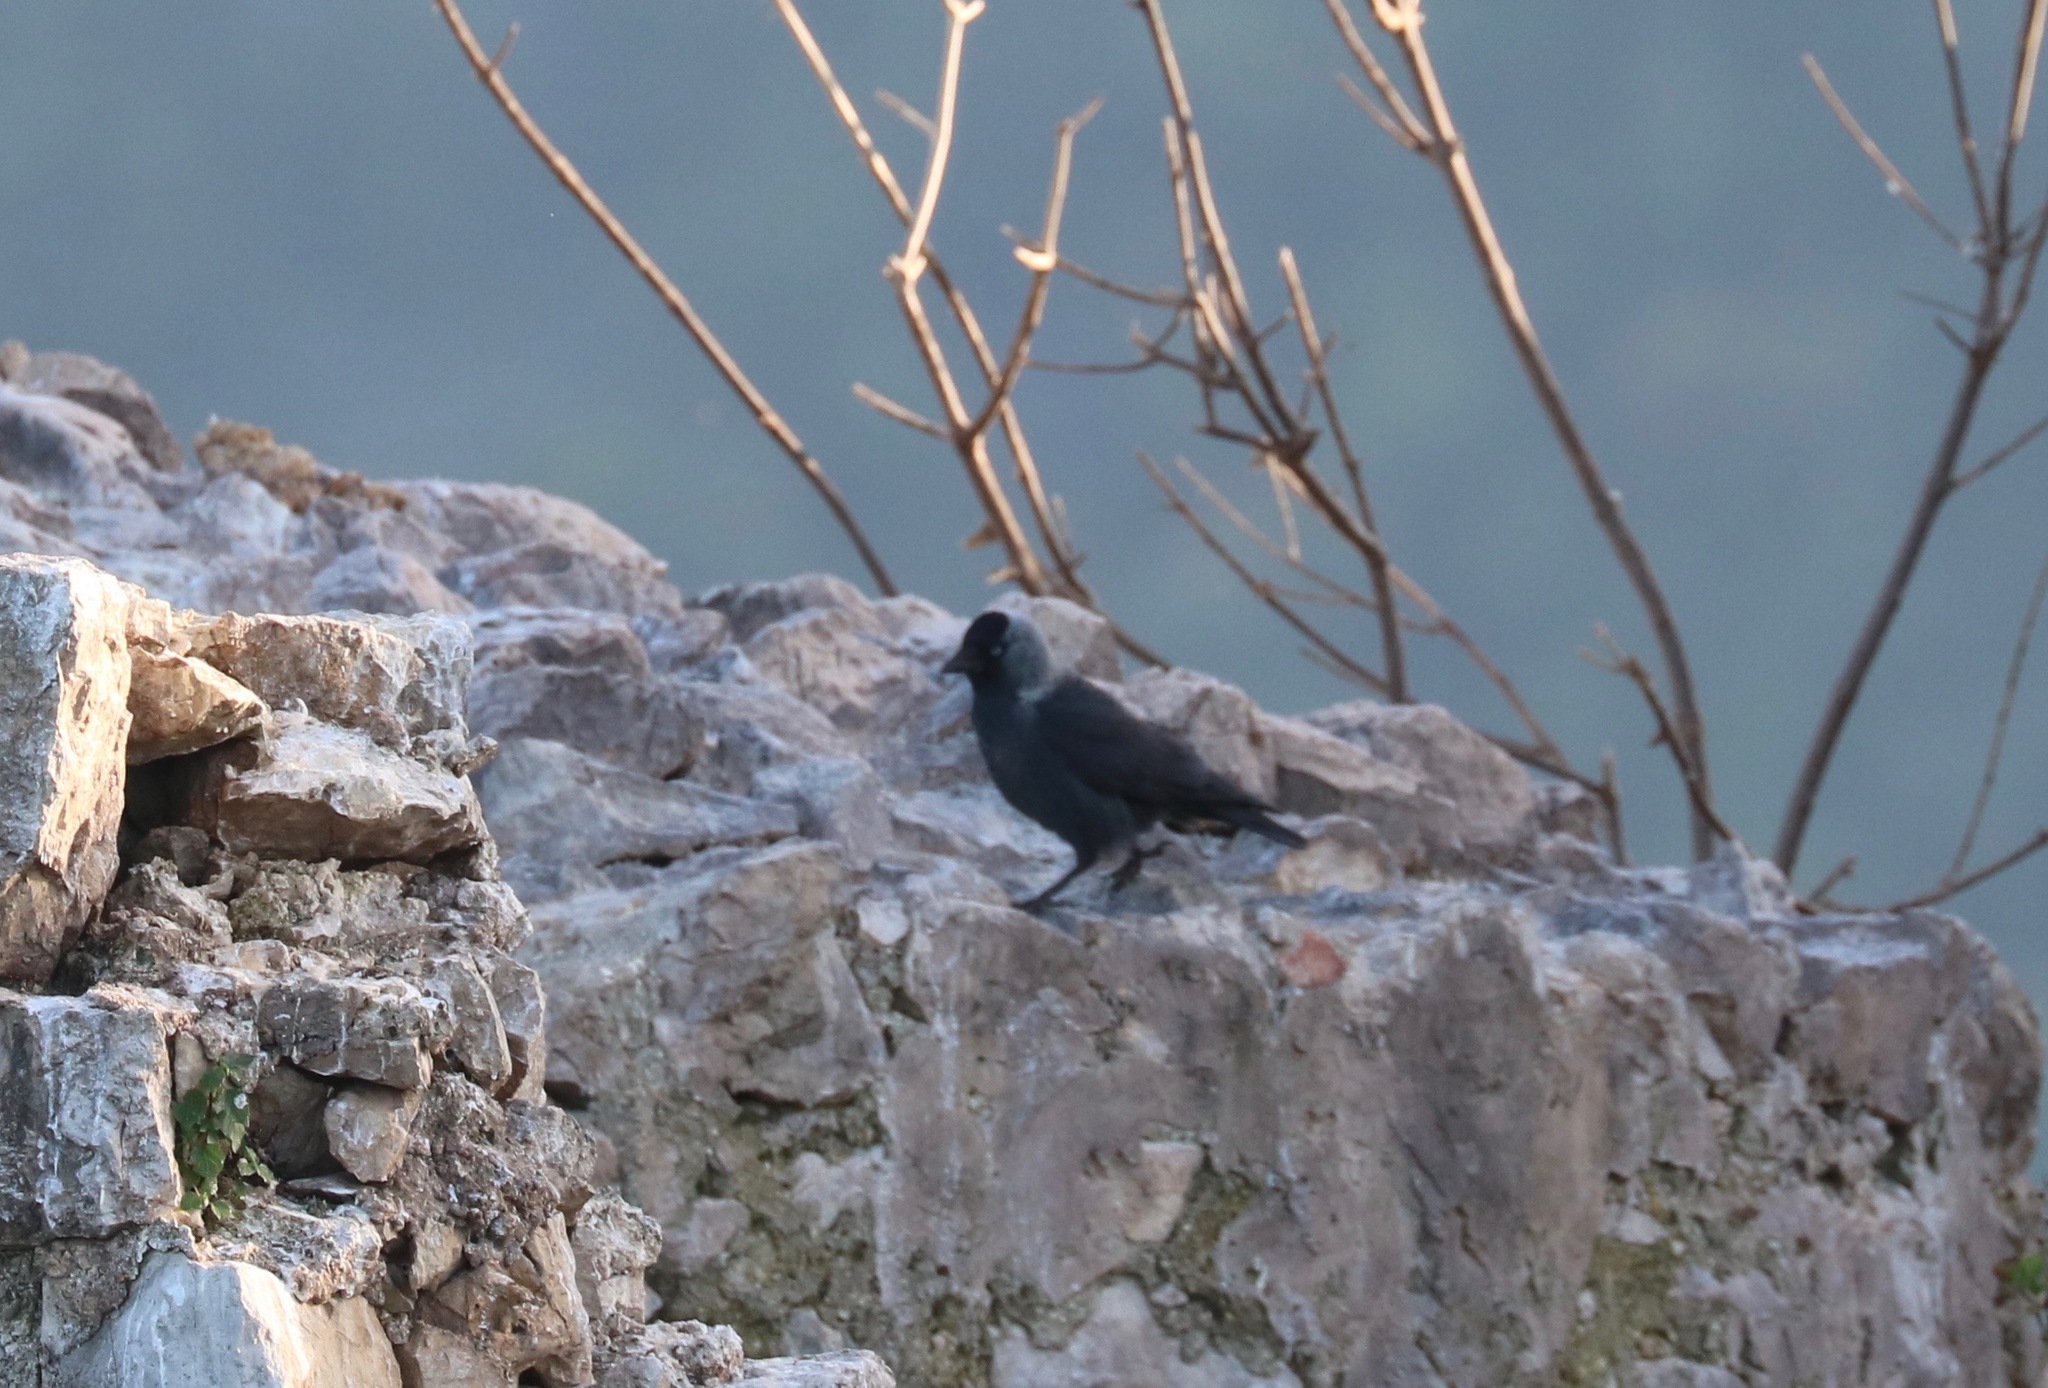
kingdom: Animalia
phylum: Chordata
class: Aves
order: Passeriformes
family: Corvidae
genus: Coloeus
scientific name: Coloeus monedula
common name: Western jackdaw
